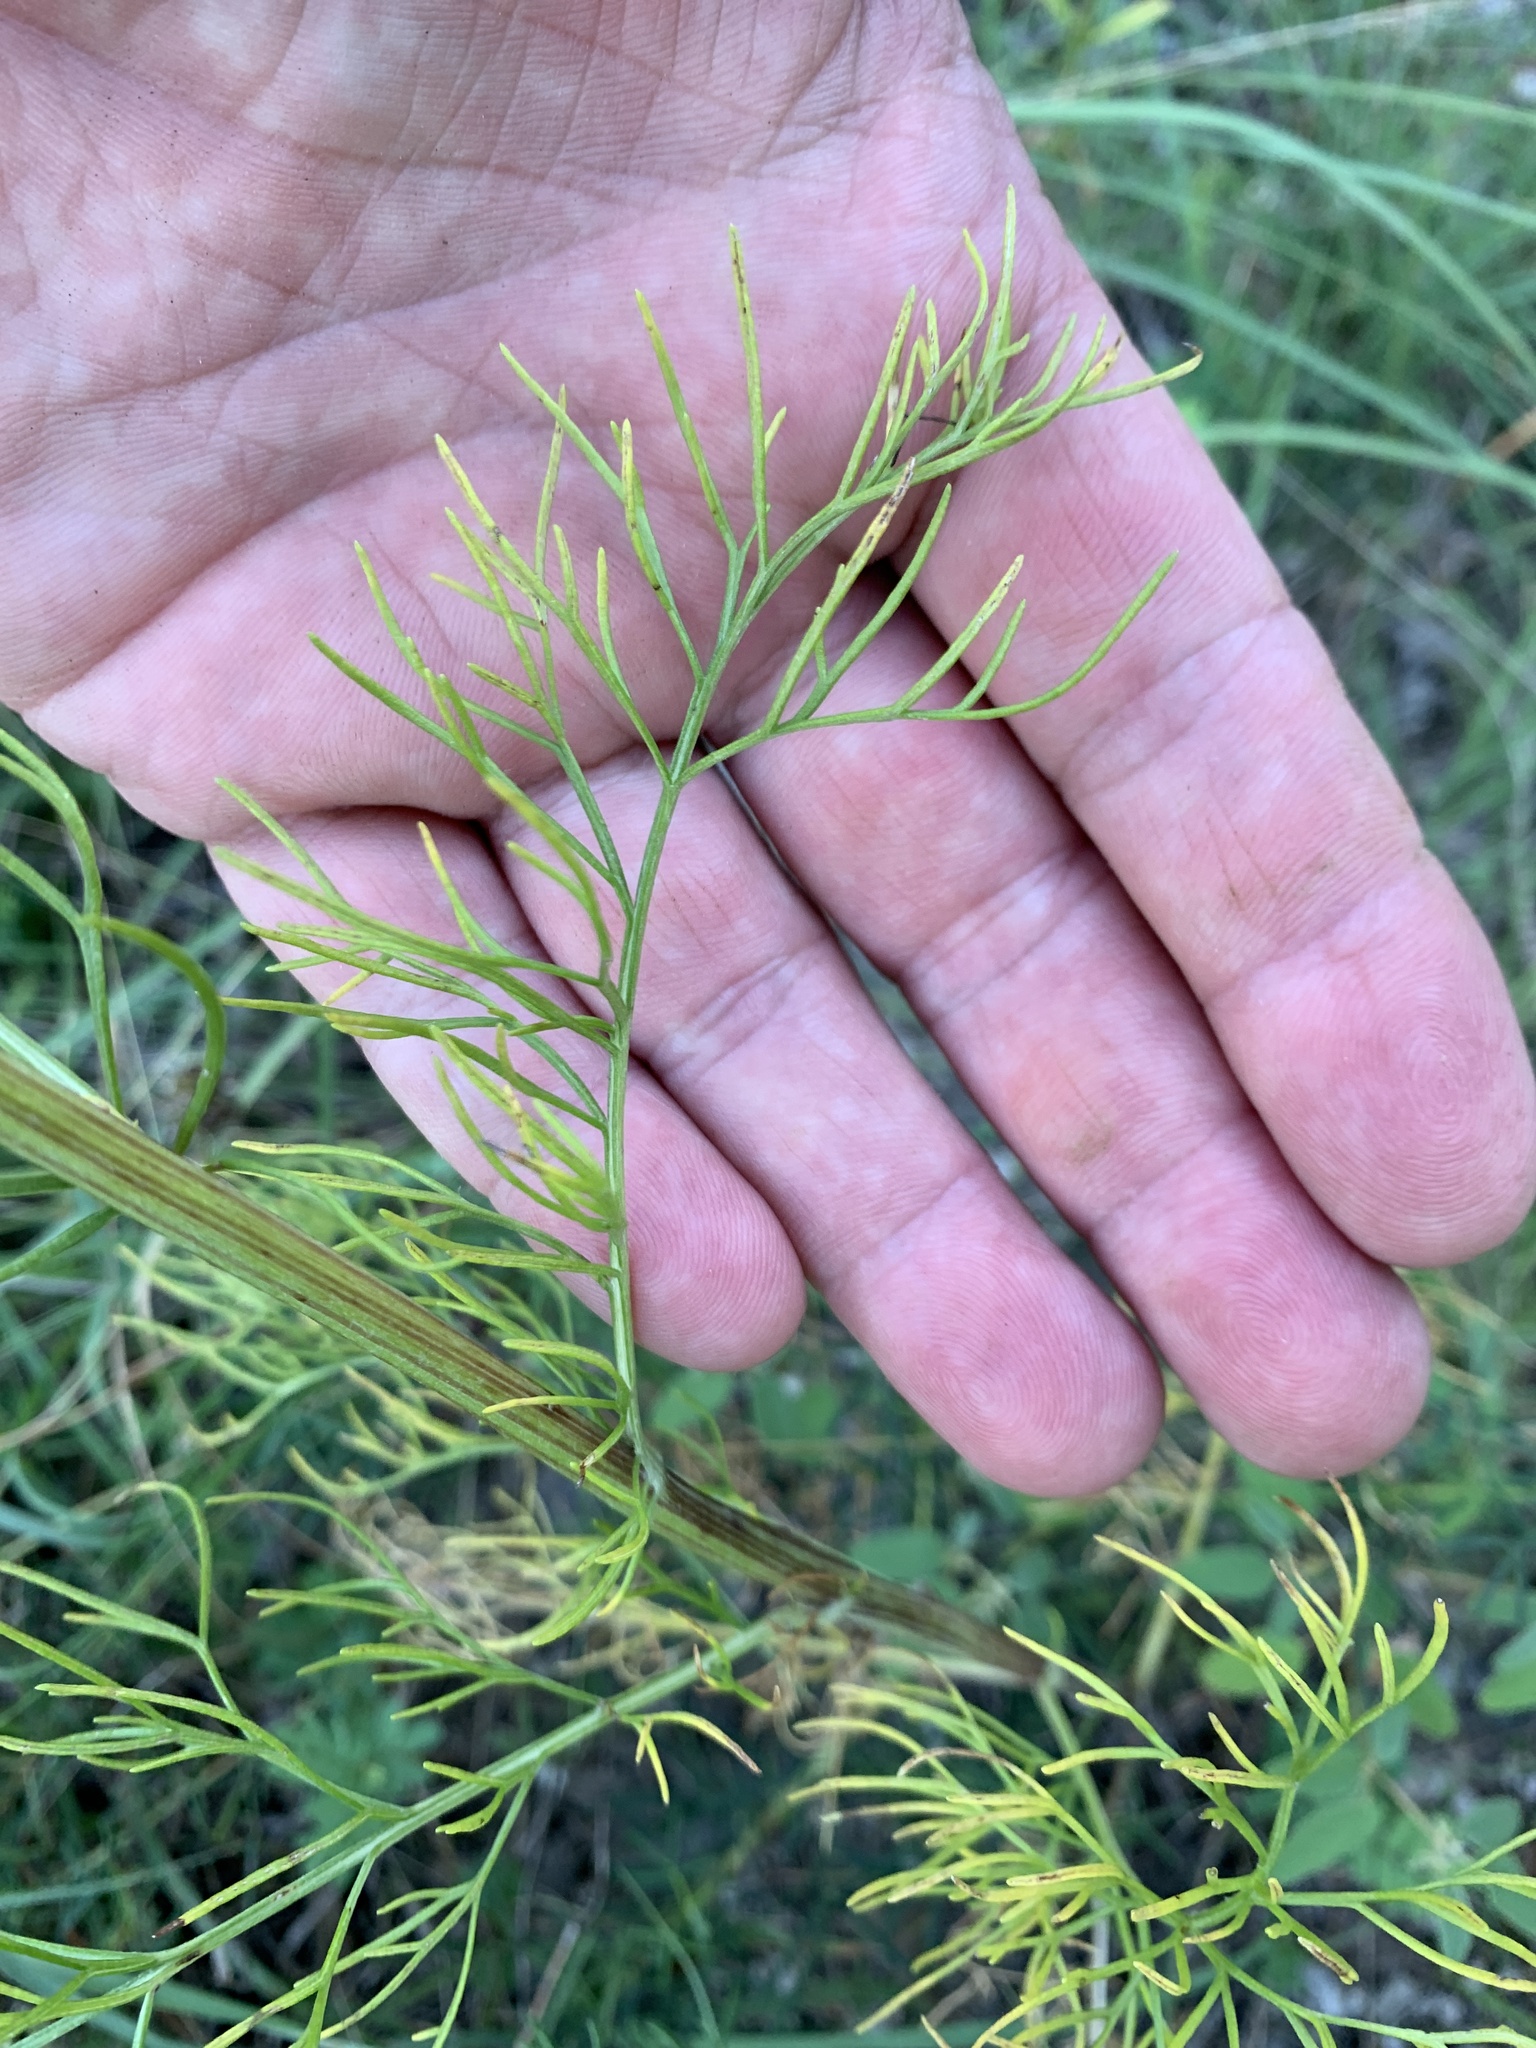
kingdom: Plantae
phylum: Tracheophyta
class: Magnoliopsida
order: Asterales
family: Asteraceae
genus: Hymenopappus
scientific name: Hymenopappus scabiosaeus
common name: Carolina woollywhite
